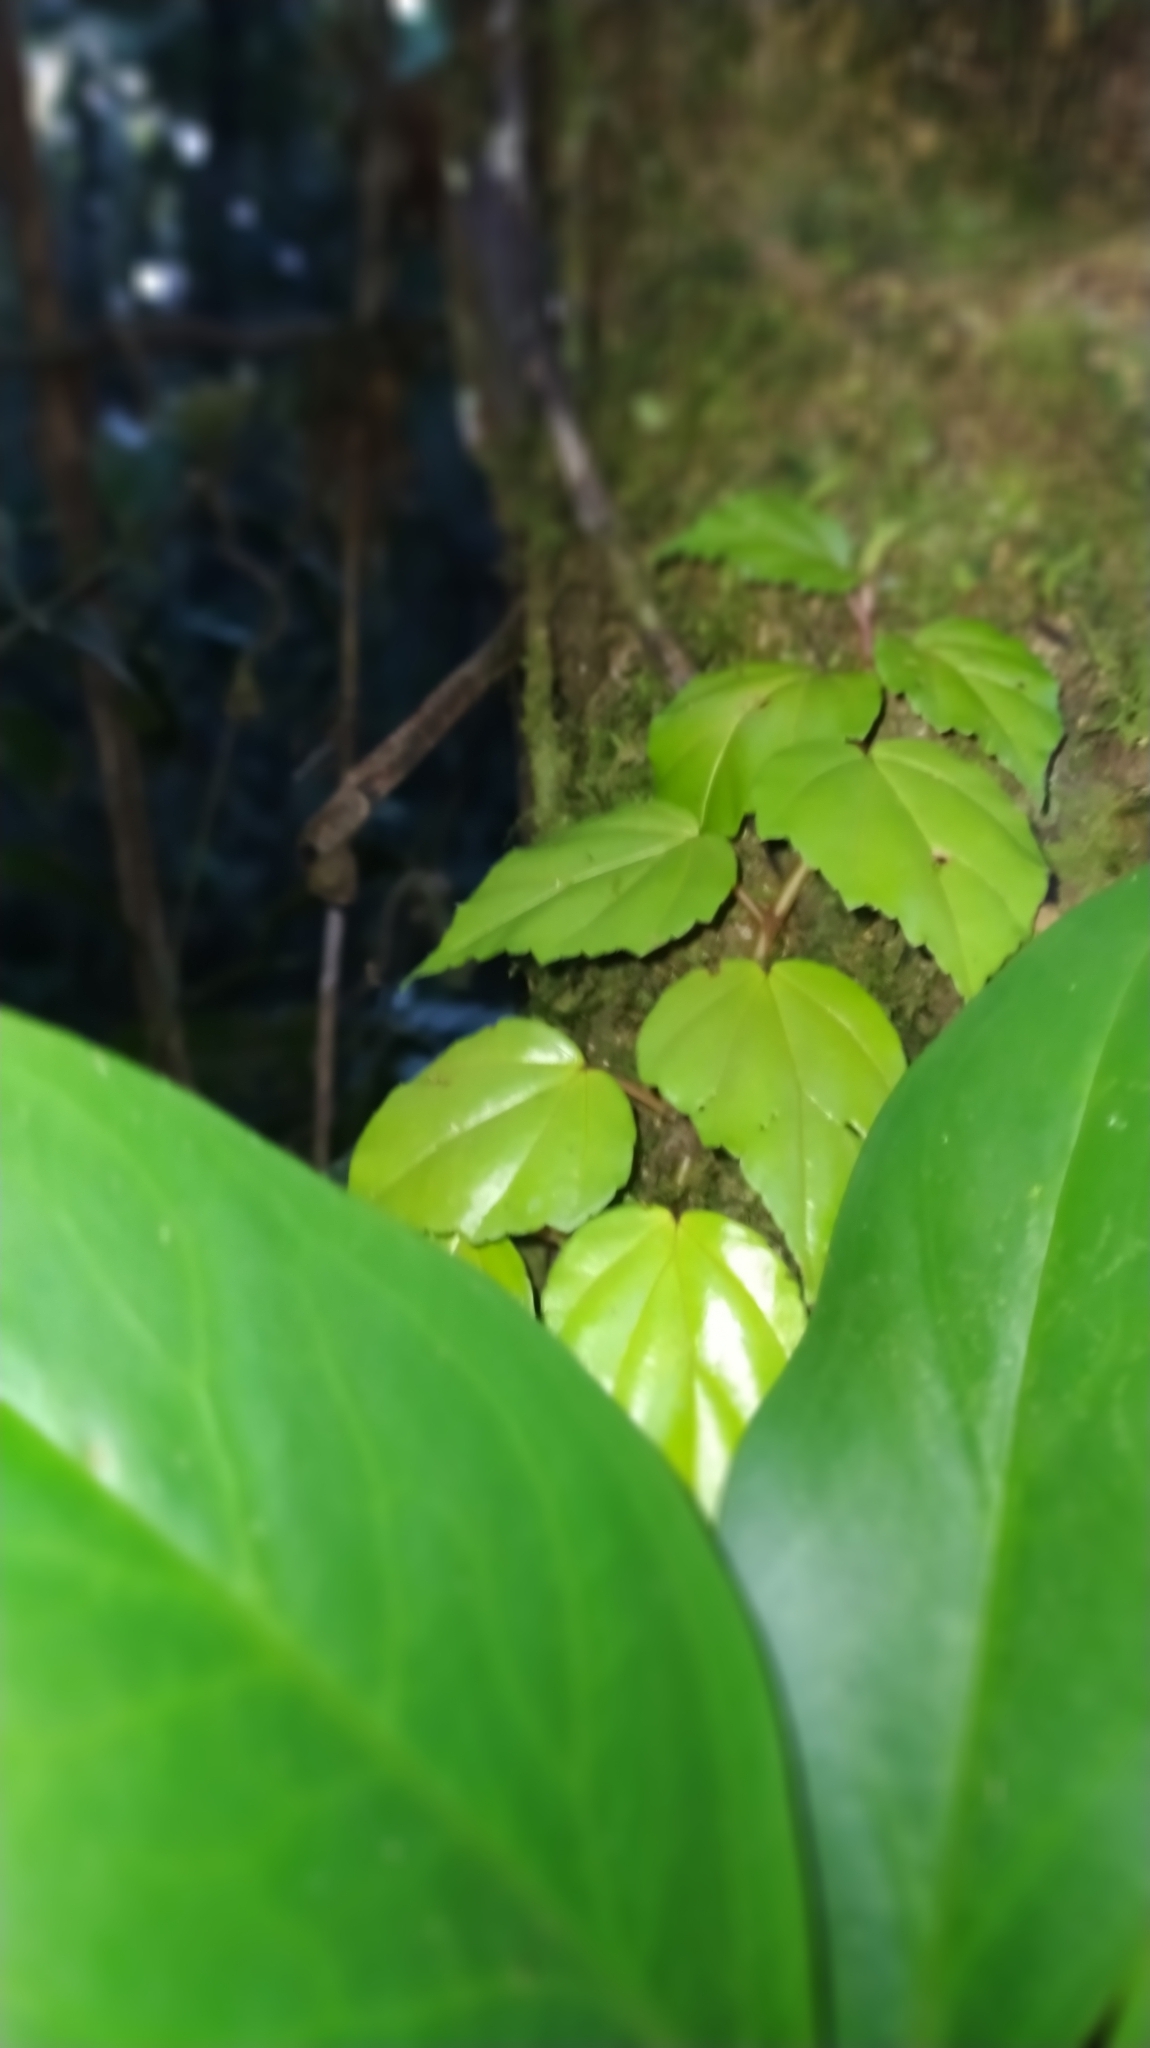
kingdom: Plantae
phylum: Tracheophyta
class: Magnoliopsida
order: Cucurbitales
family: Begoniaceae
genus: Begonia
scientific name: Begonia glabra
